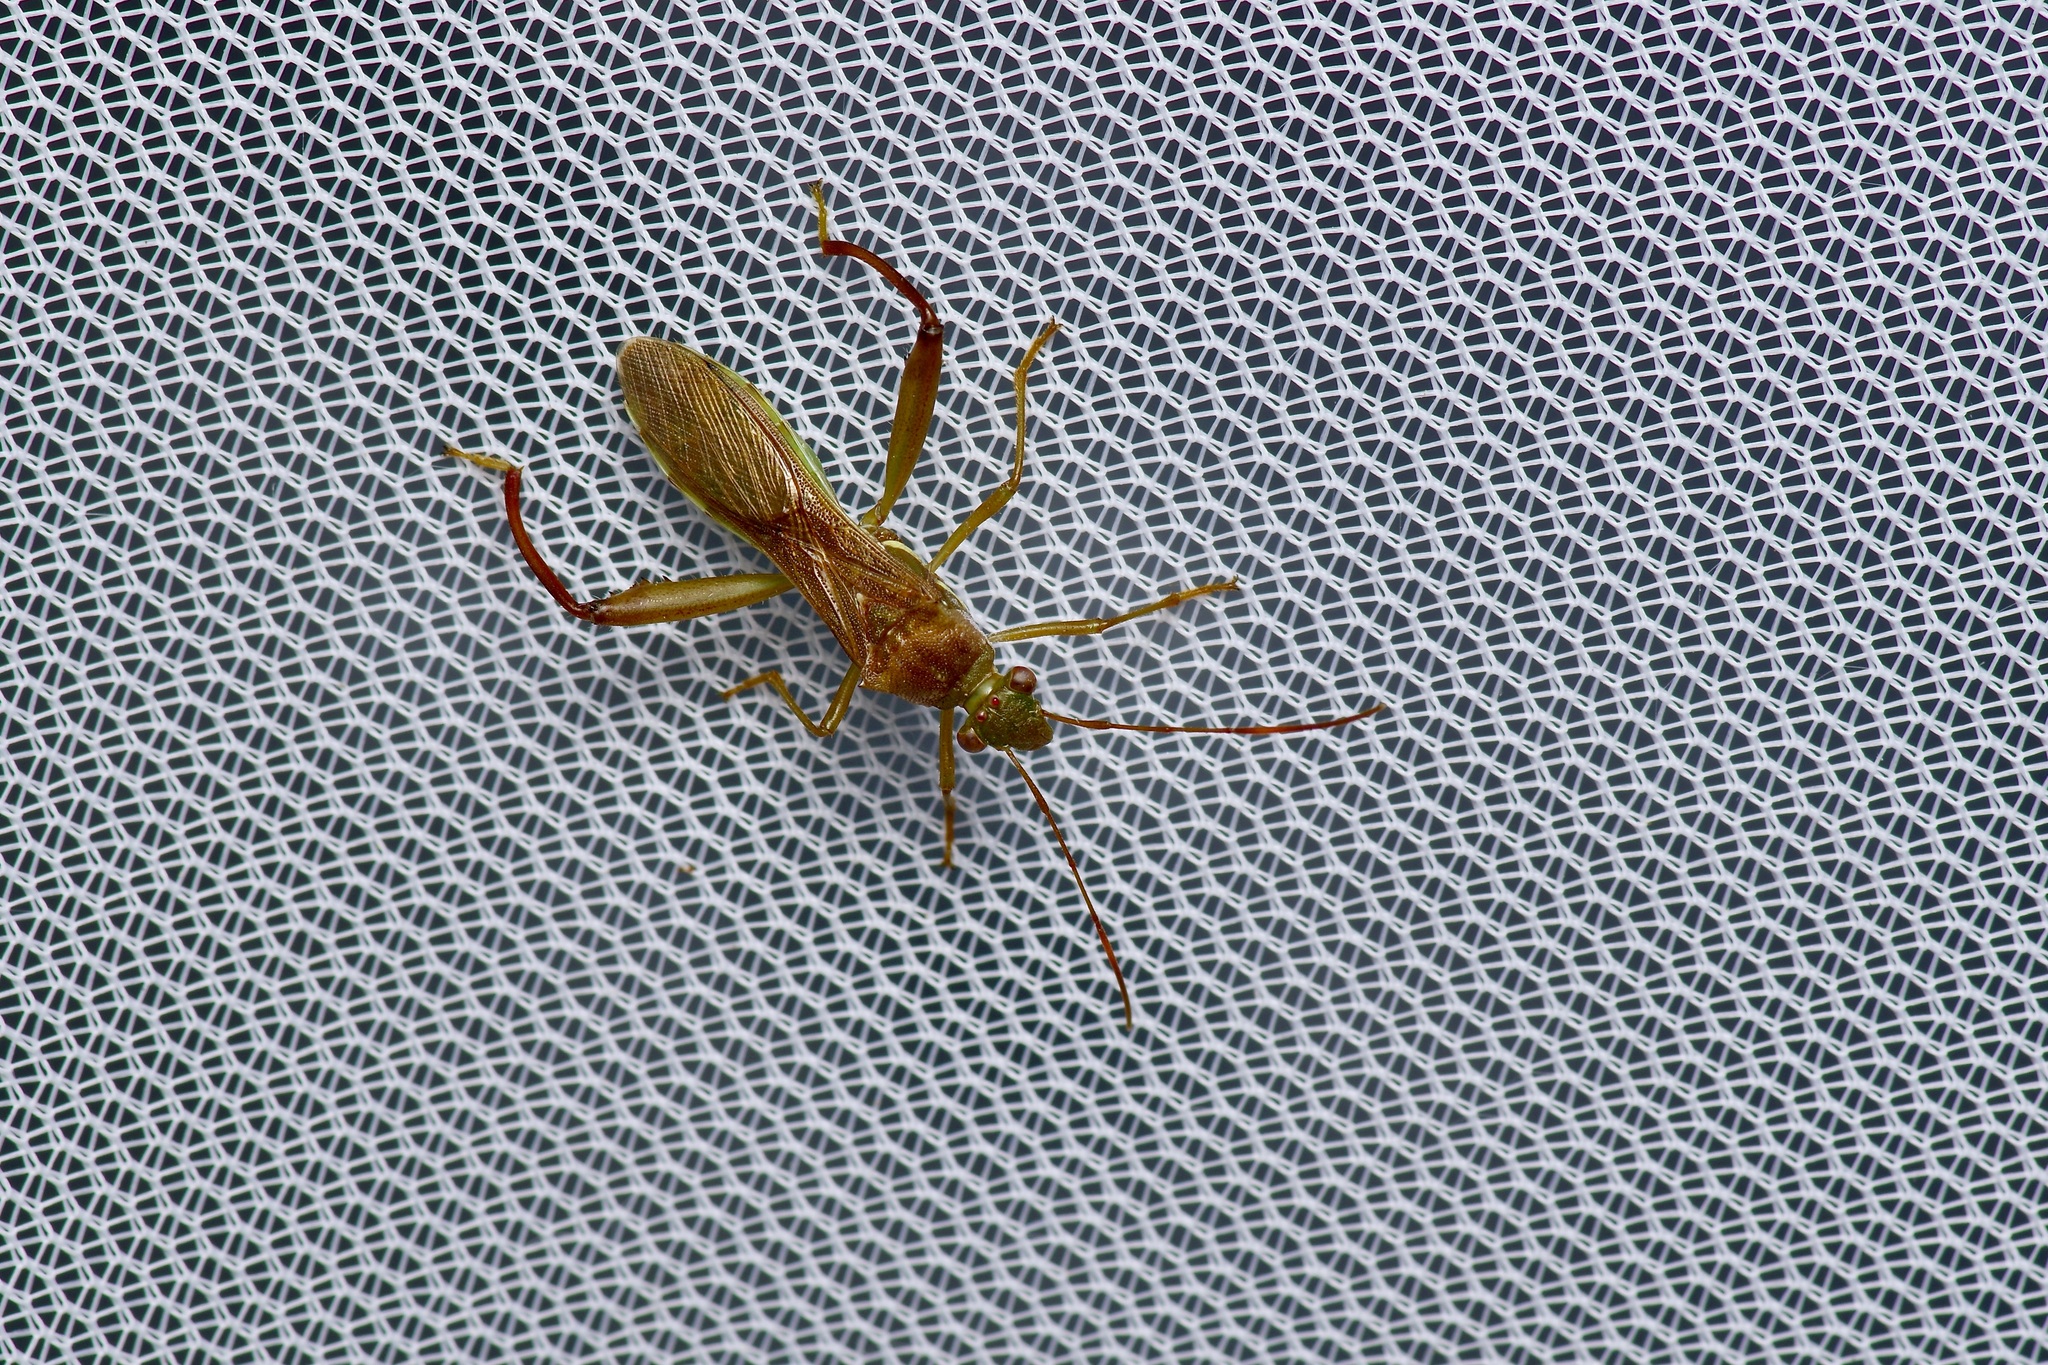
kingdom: Animalia
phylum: Arthropoda
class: Insecta
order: Hemiptera
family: Alydidae
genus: Hyalymenus
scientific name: Hyalymenus tarsatus
